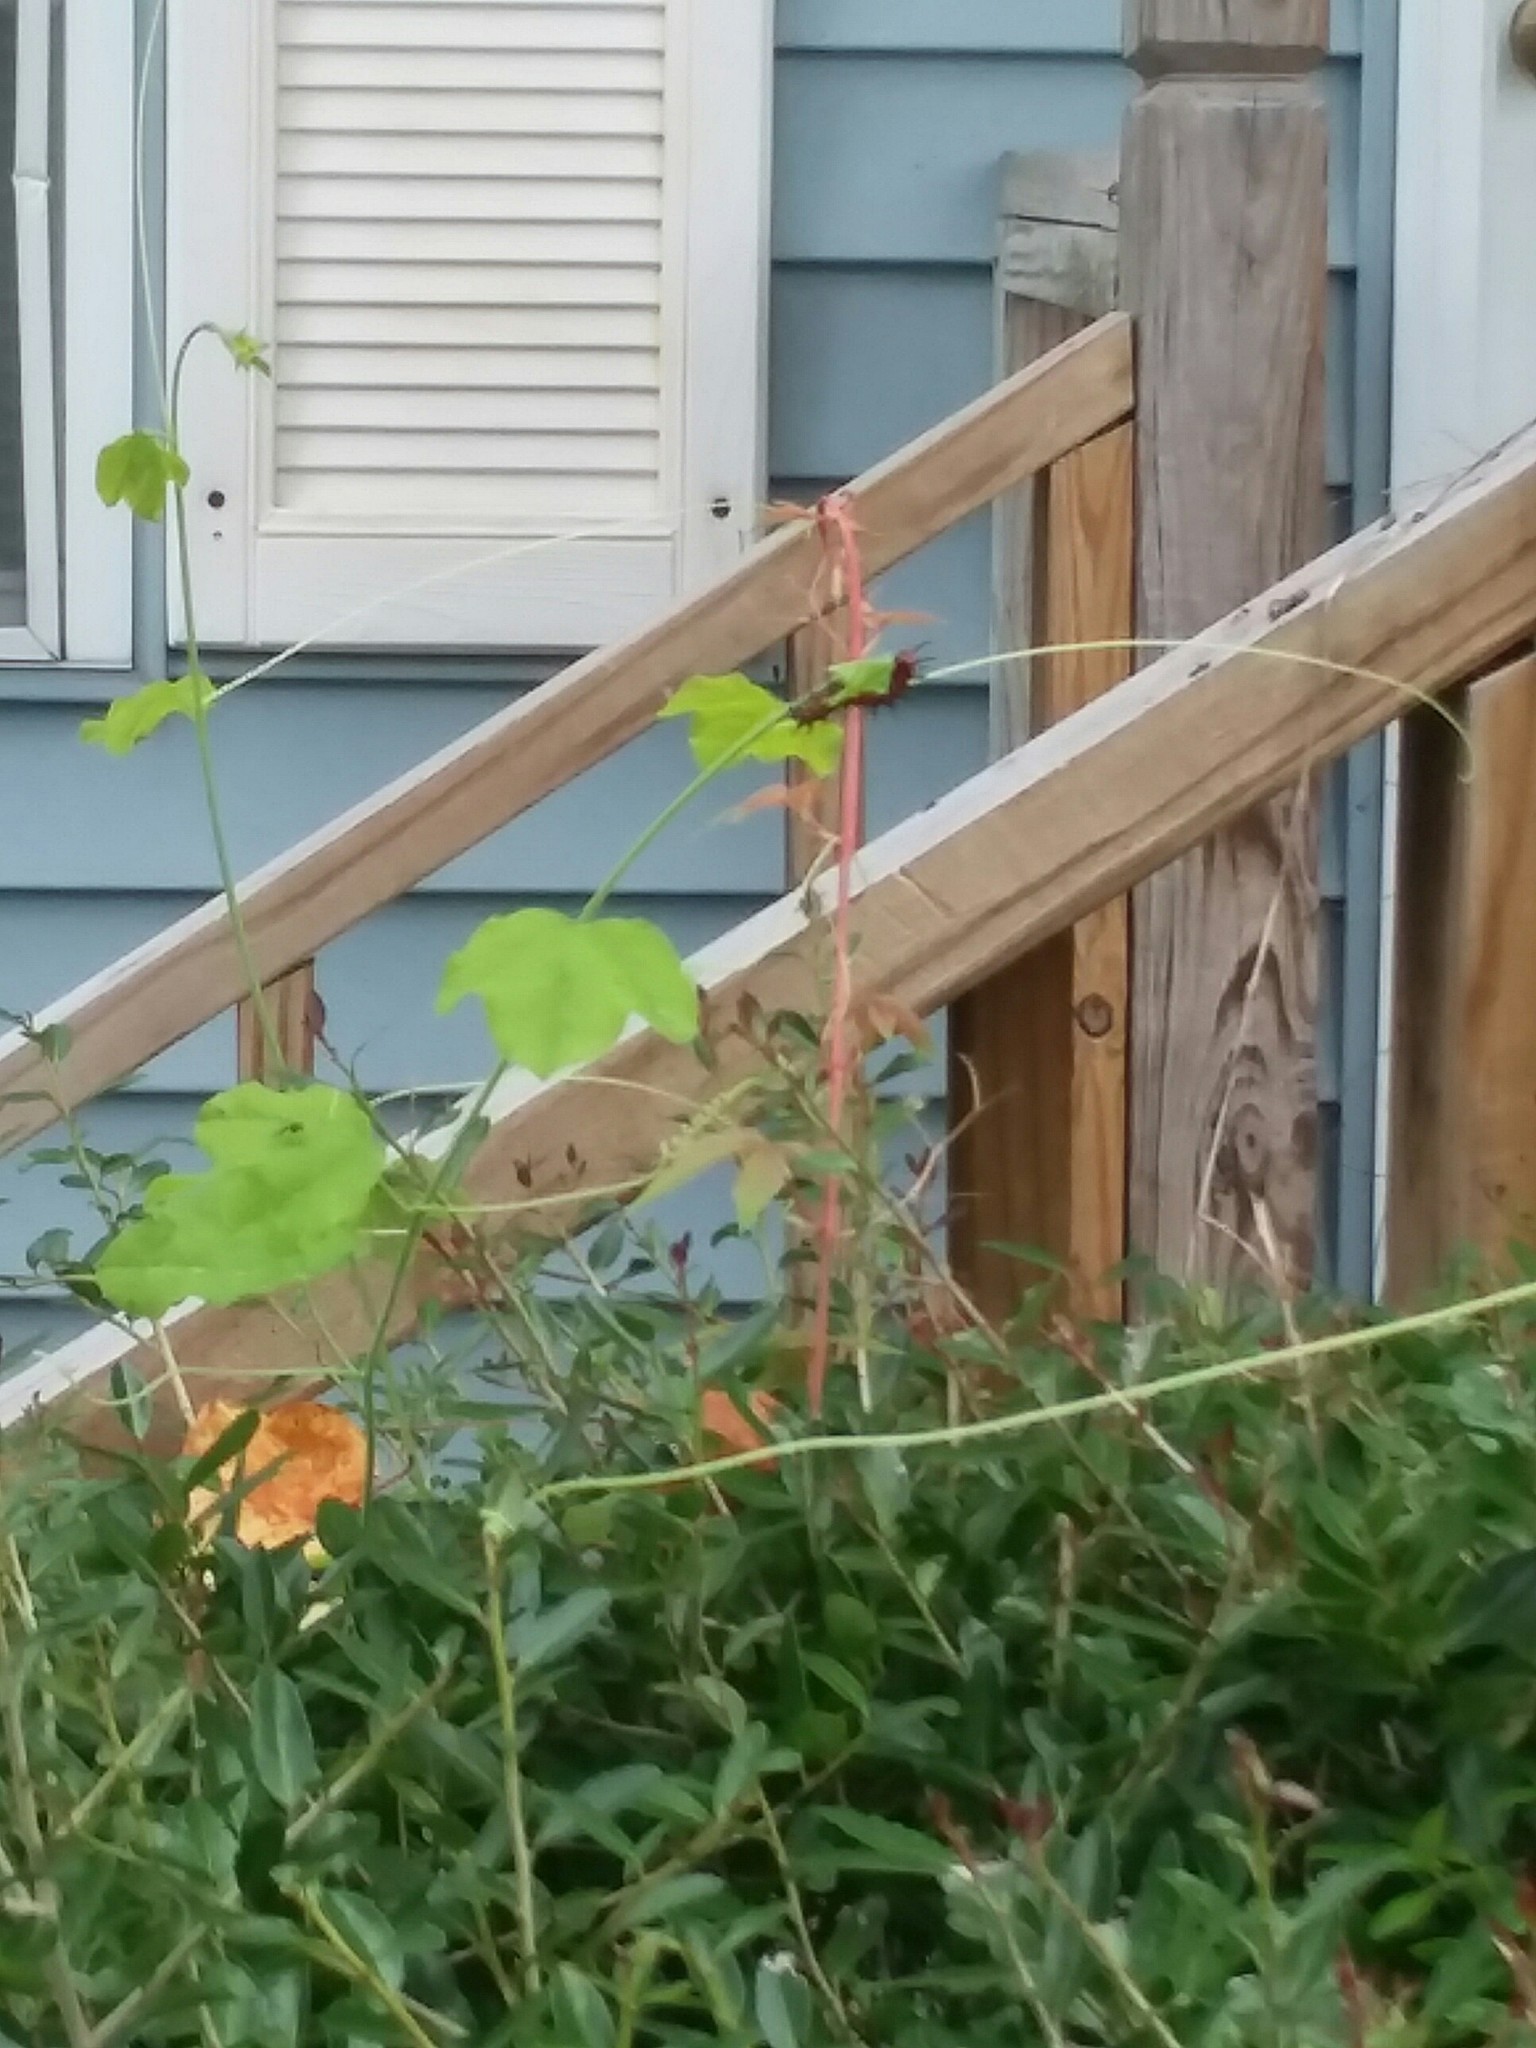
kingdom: Animalia
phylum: Arthropoda
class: Insecta
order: Lepidoptera
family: Nymphalidae
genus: Dione
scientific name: Dione vanillae
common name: Gulf fritillary
